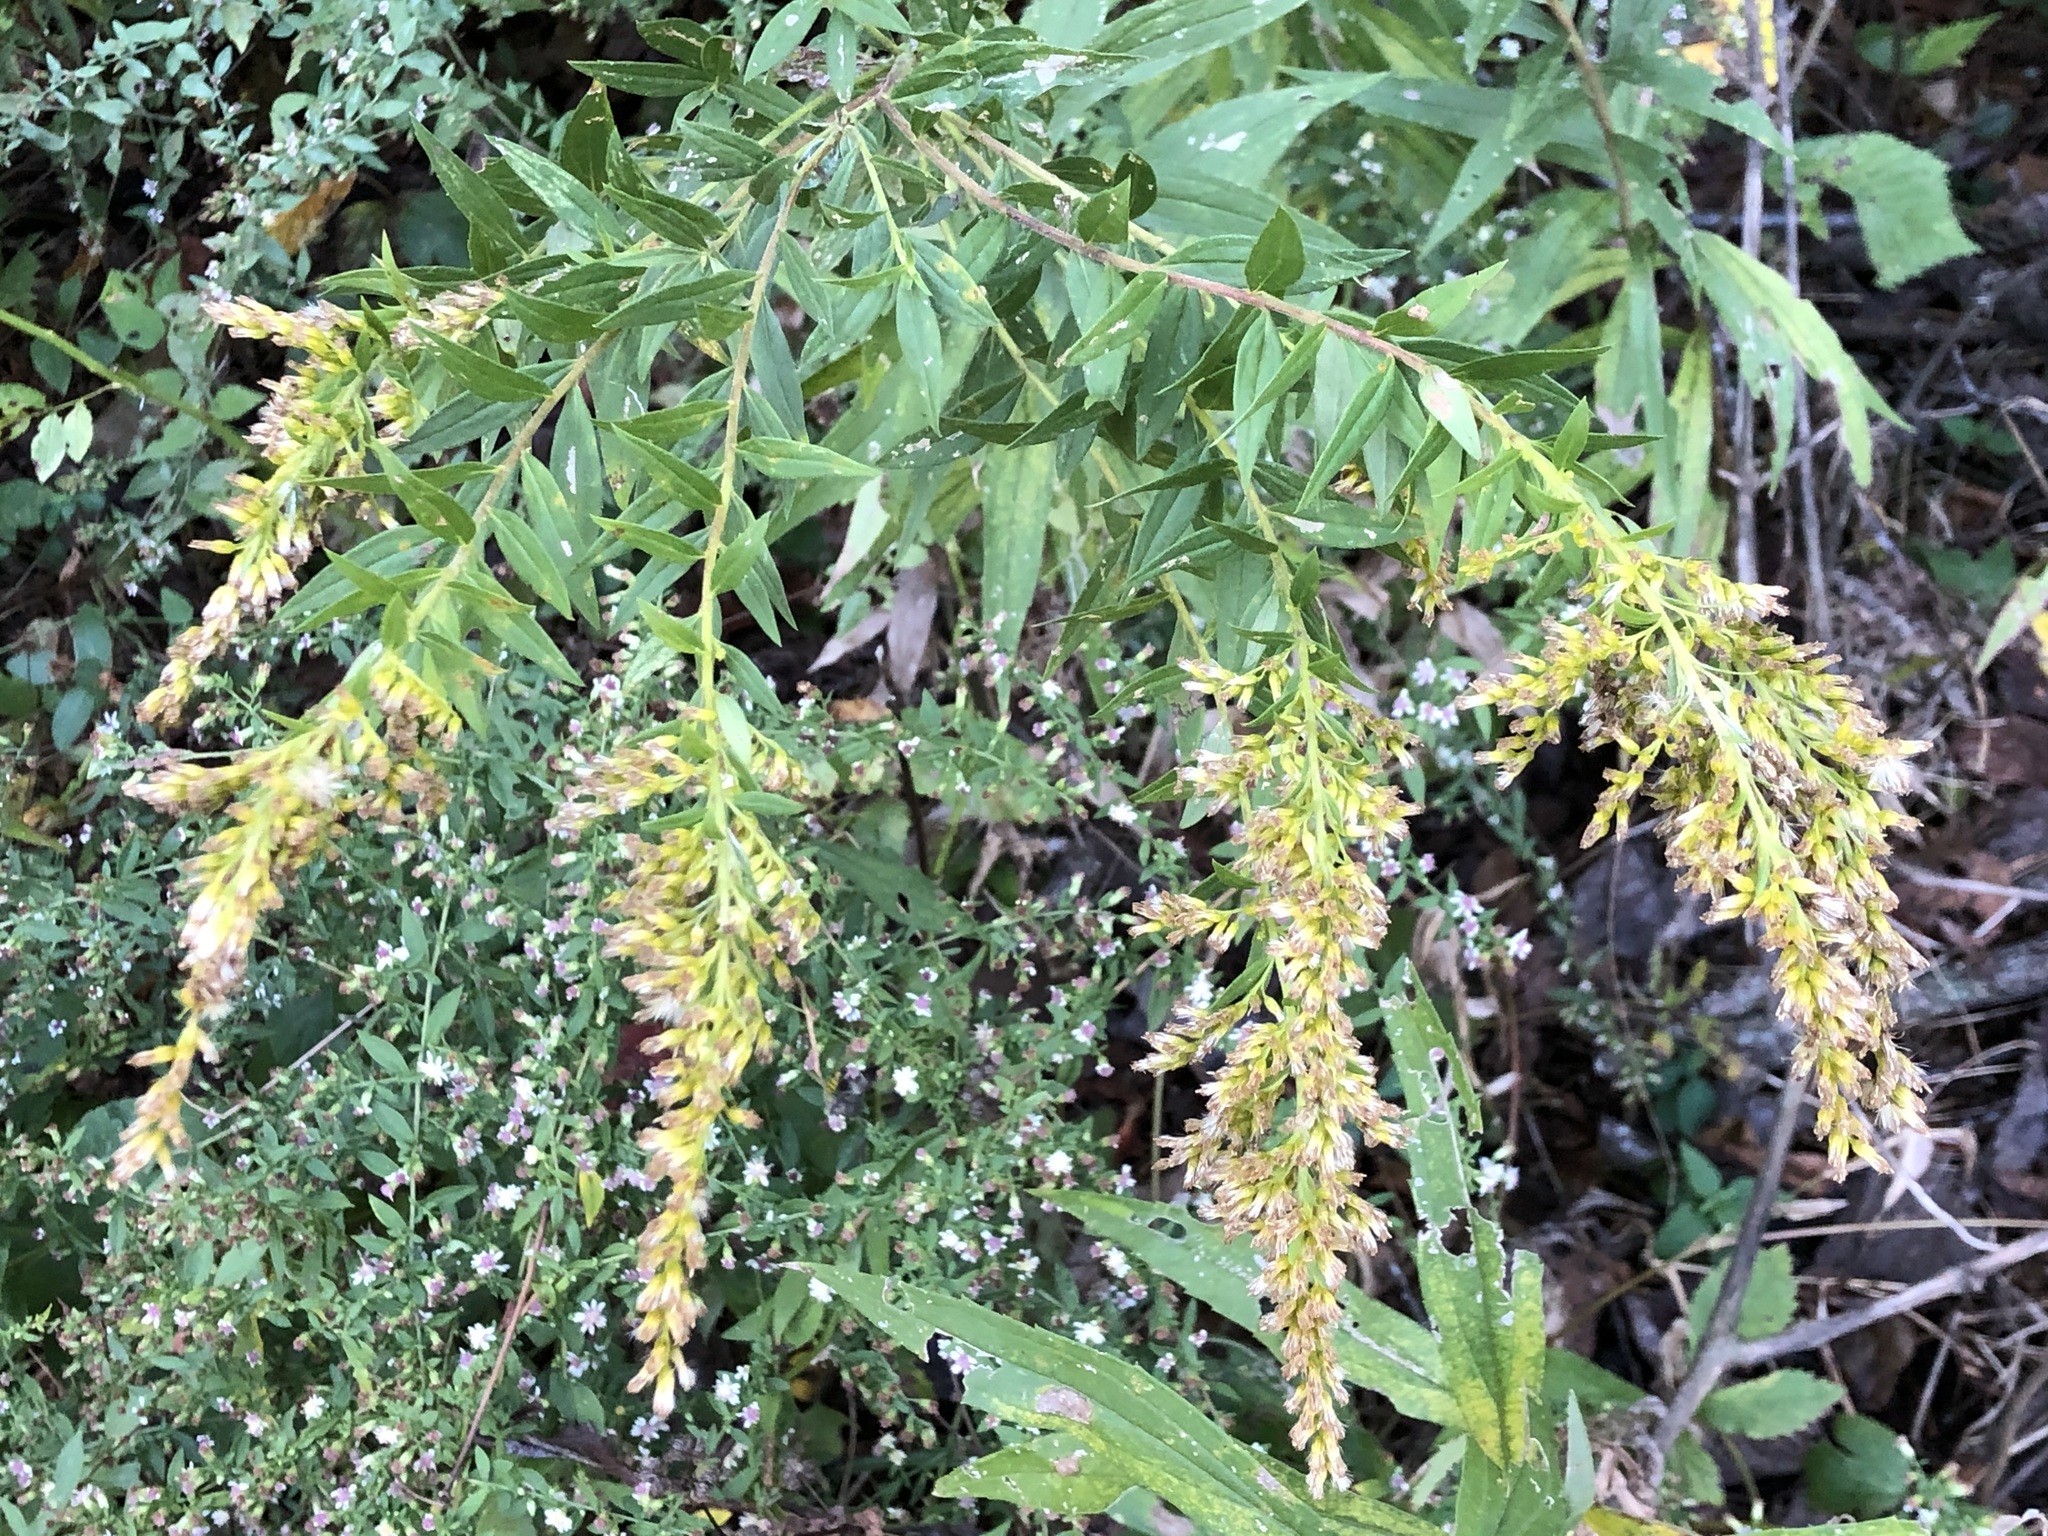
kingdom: Plantae
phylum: Tracheophyta
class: Magnoliopsida
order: Asterales
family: Asteraceae
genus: Solidago
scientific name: Solidago altissima
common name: Late goldenrod
